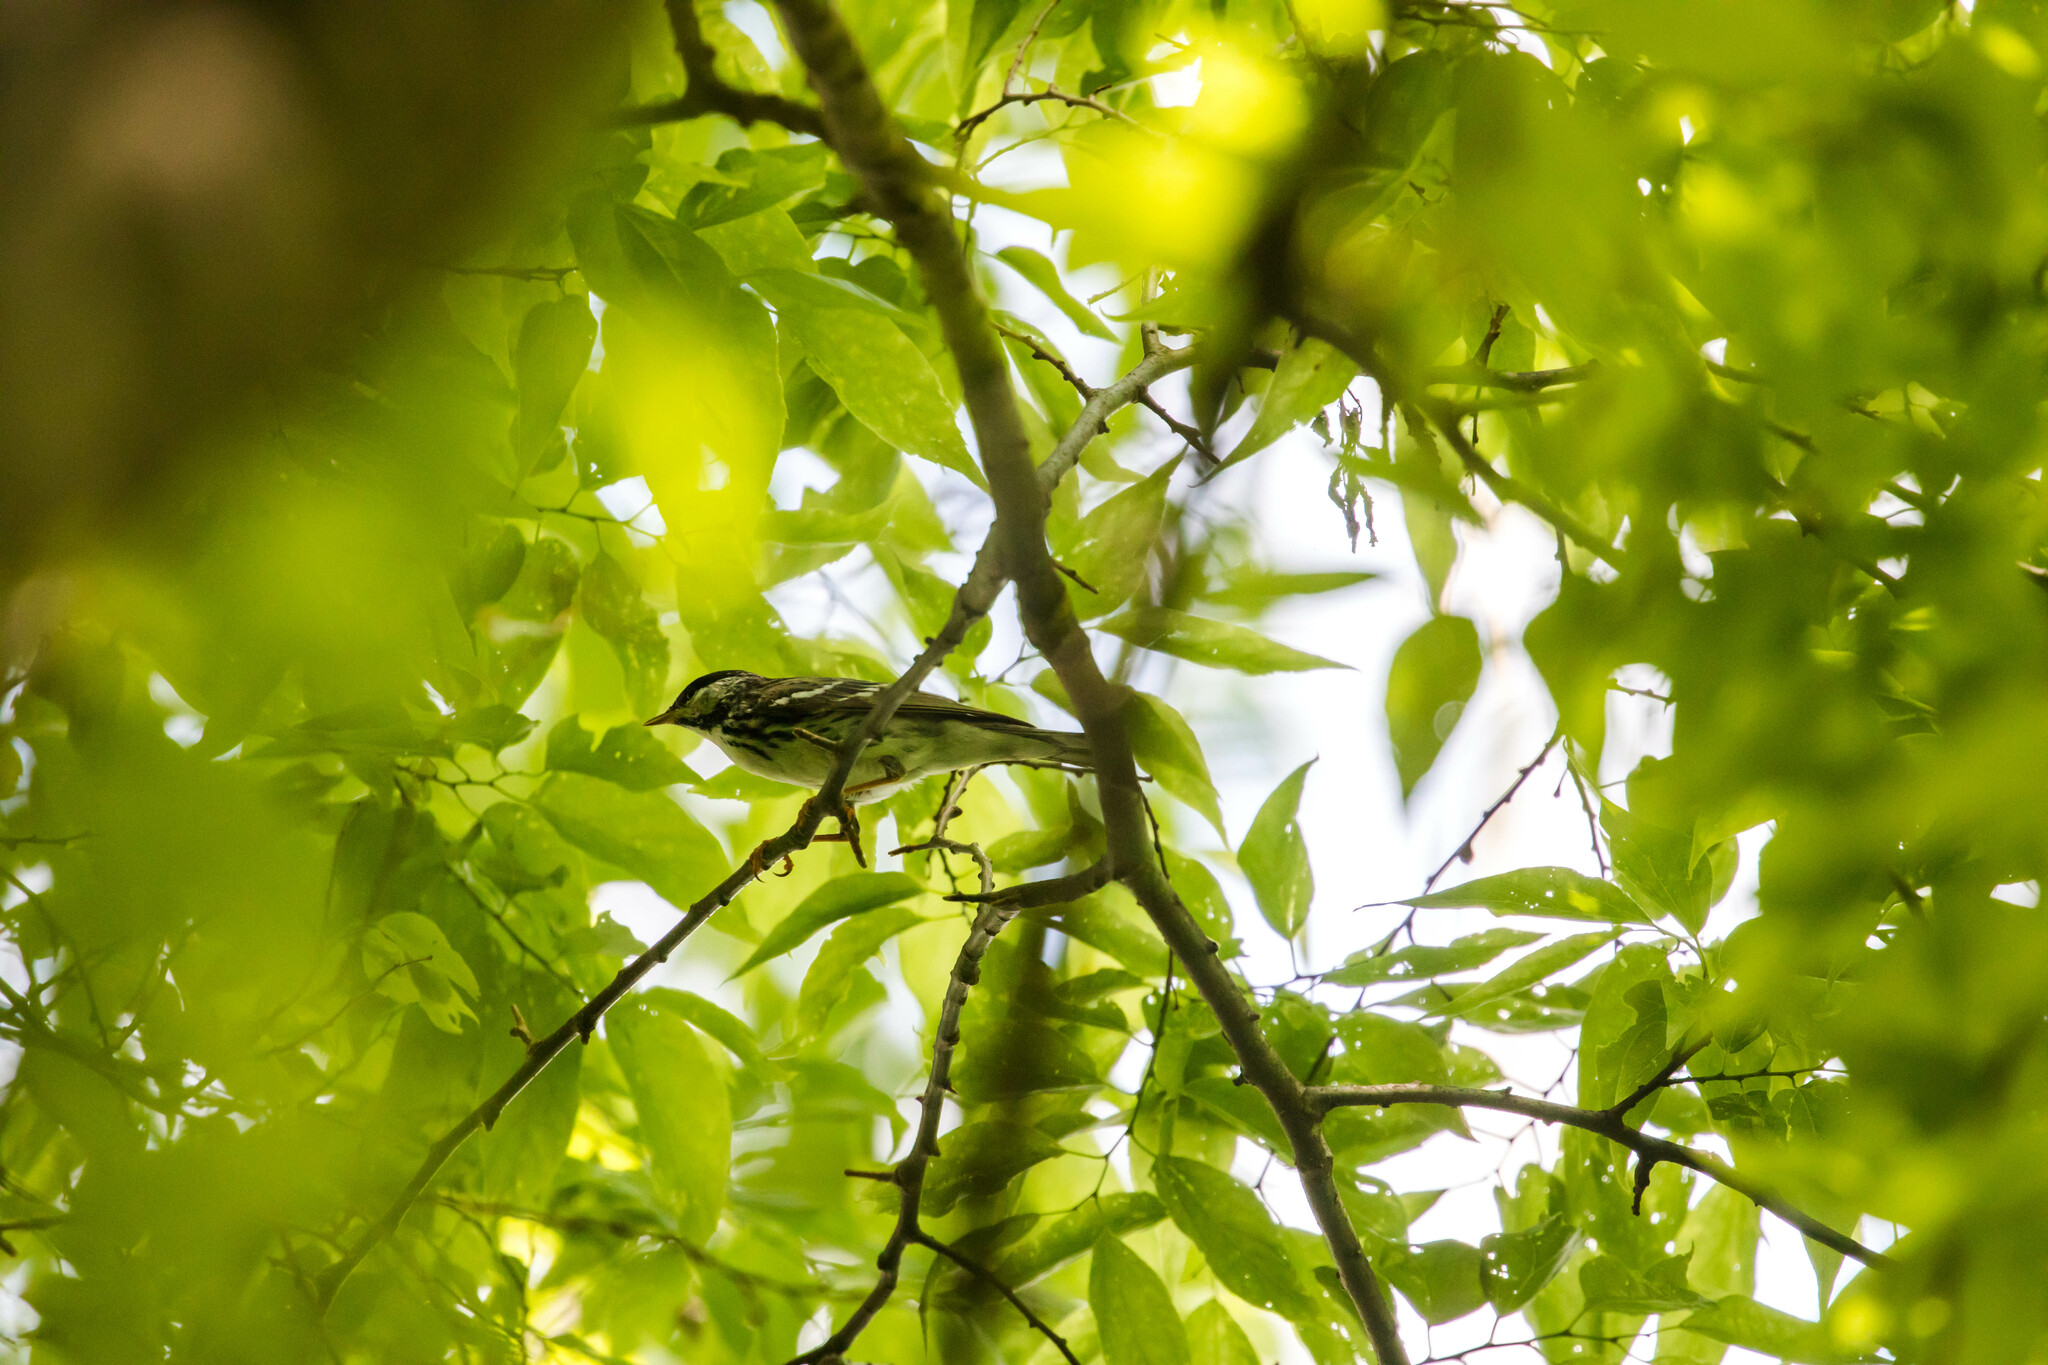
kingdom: Animalia
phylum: Chordata
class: Aves
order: Passeriformes
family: Parulidae
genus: Setophaga
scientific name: Setophaga striata
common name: Blackpoll warbler
